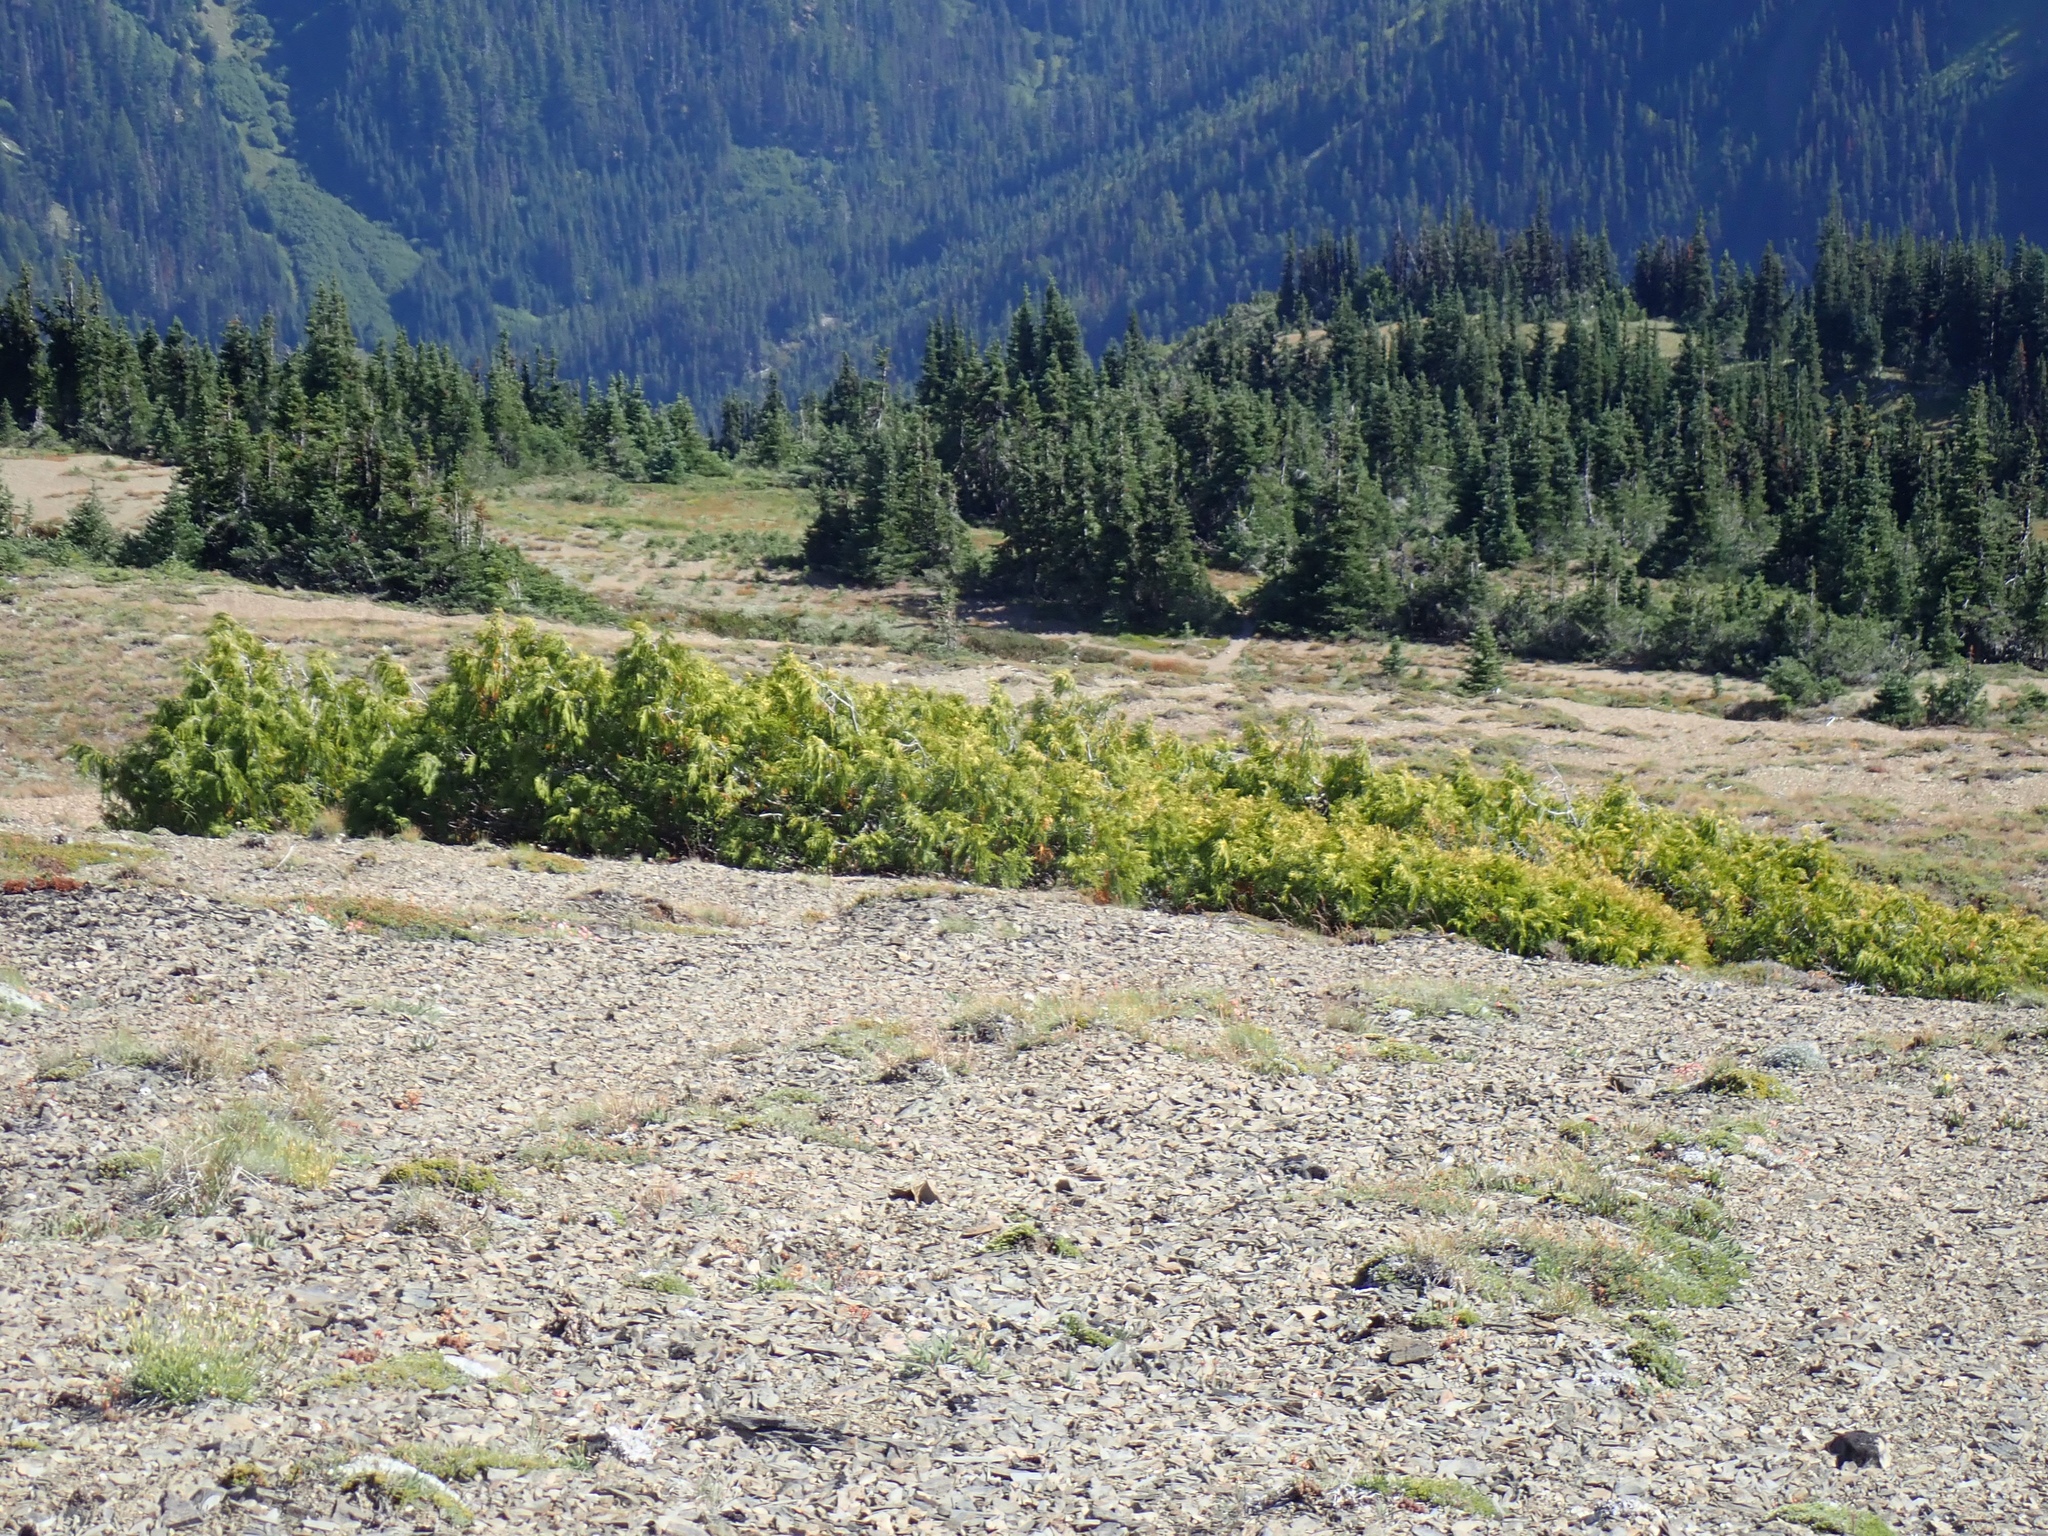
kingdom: Plantae
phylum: Tracheophyta
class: Pinopsida
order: Pinales
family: Cupressaceae
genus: Xanthocyparis
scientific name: Xanthocyparis nootkatensis
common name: Nootka cypress
